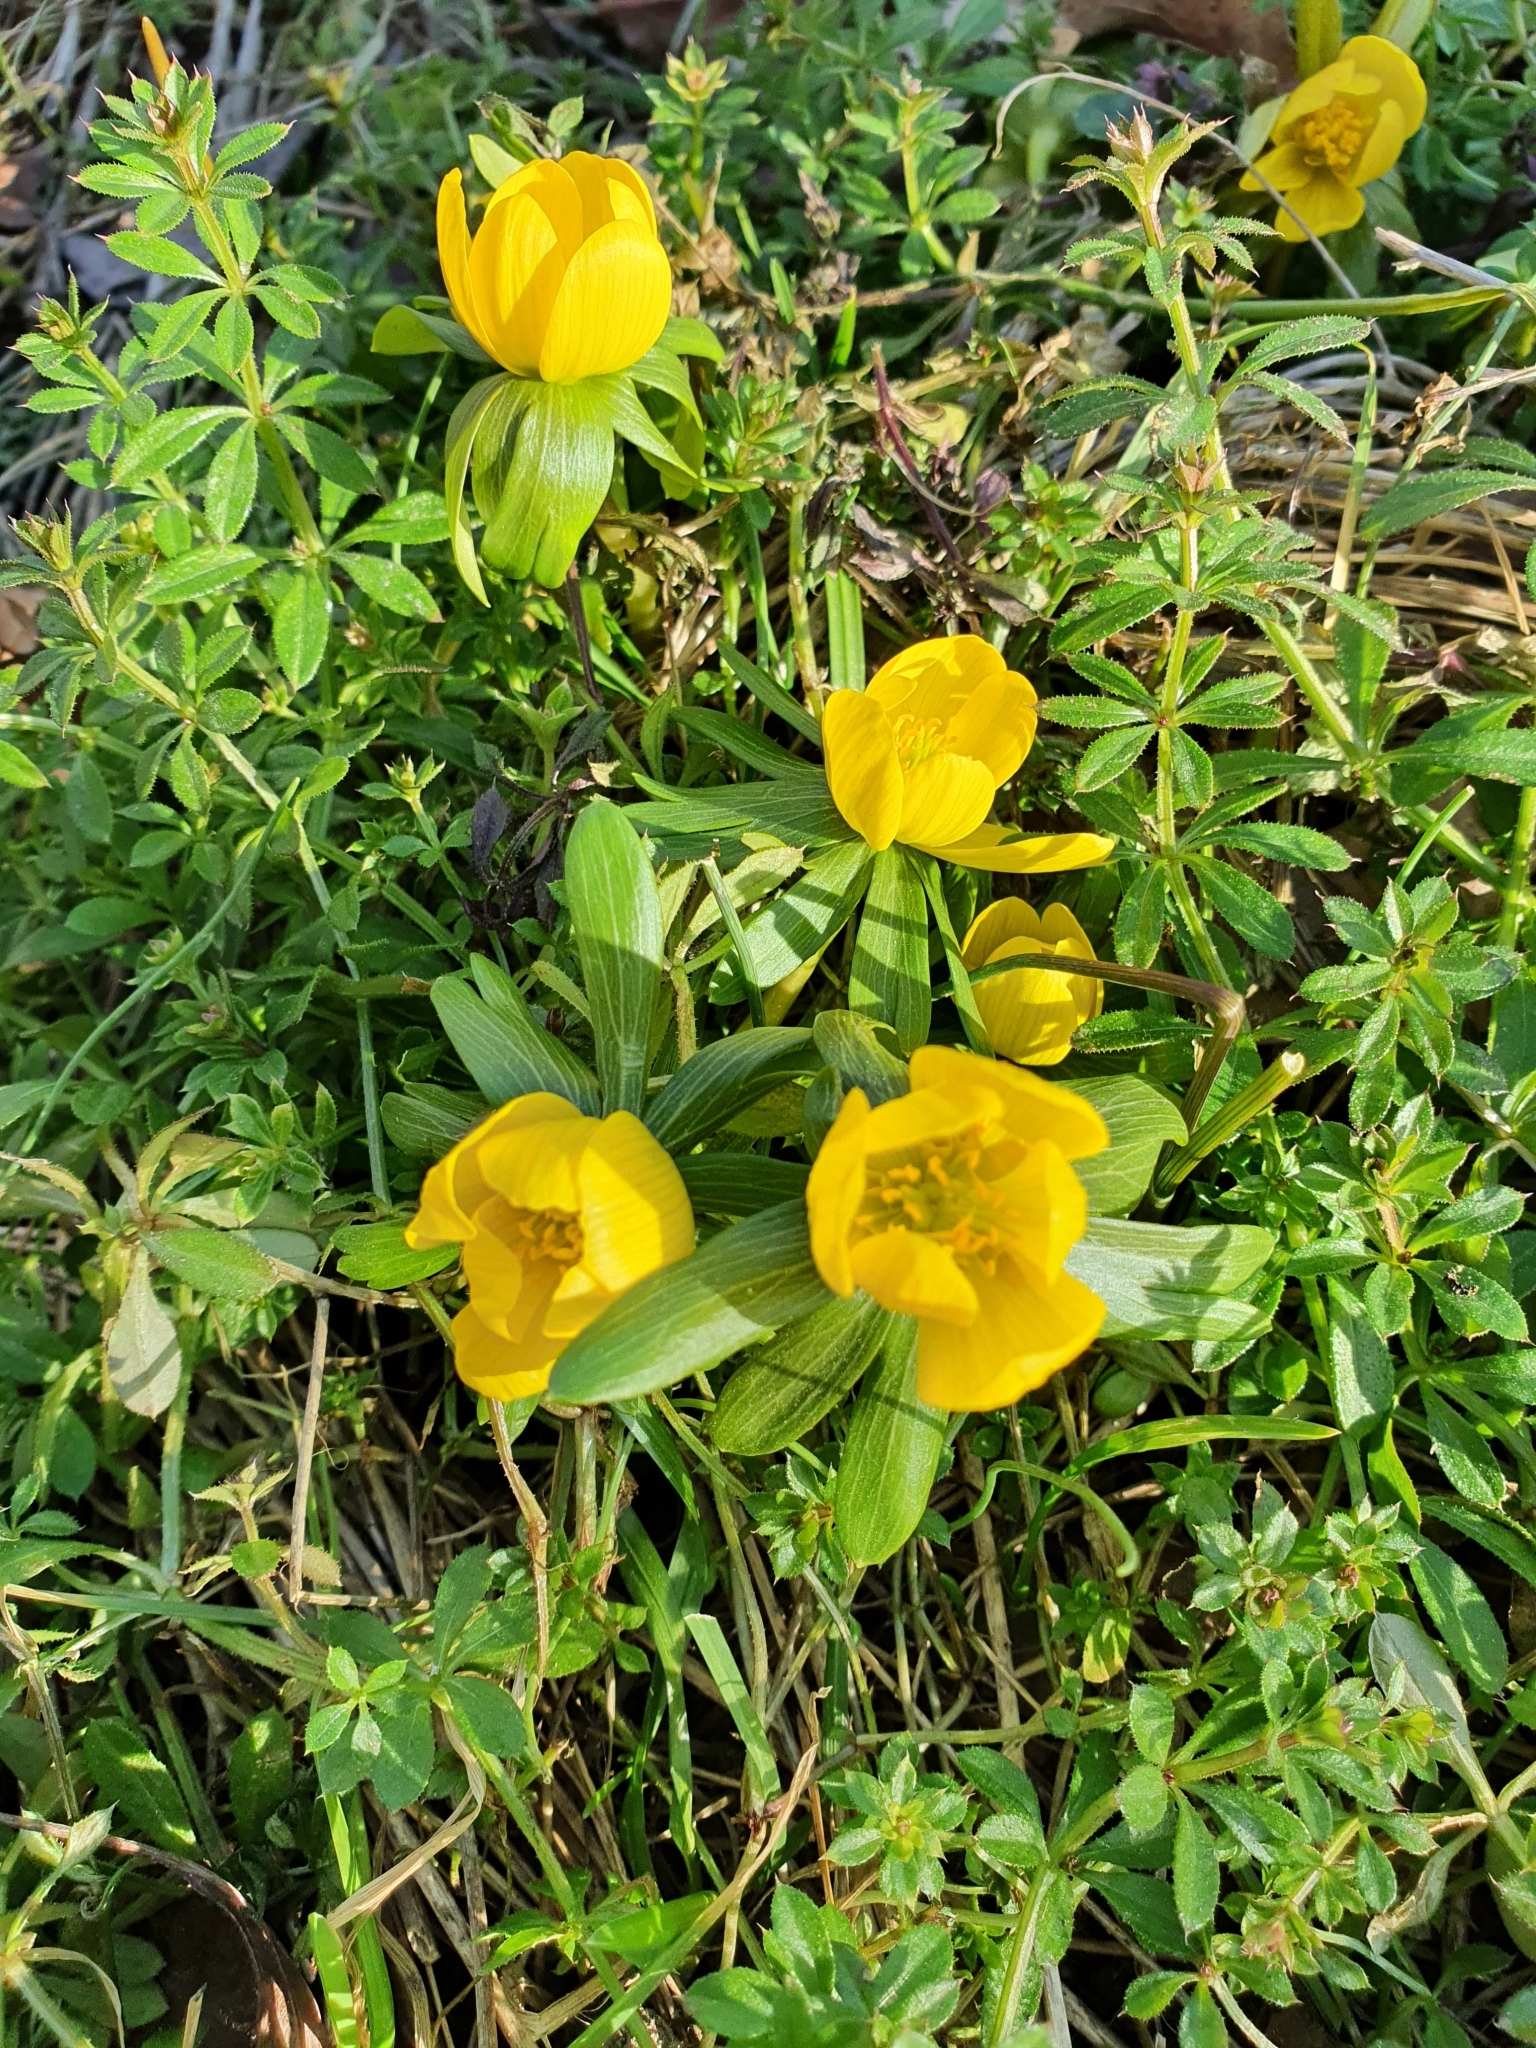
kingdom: Plantae
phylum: Tracheophyta
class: Magnoliopsida
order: Ranunculales
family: Ranunculaceae
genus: Eranthis
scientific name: Eranthis hyemalis
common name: Winter aconite
